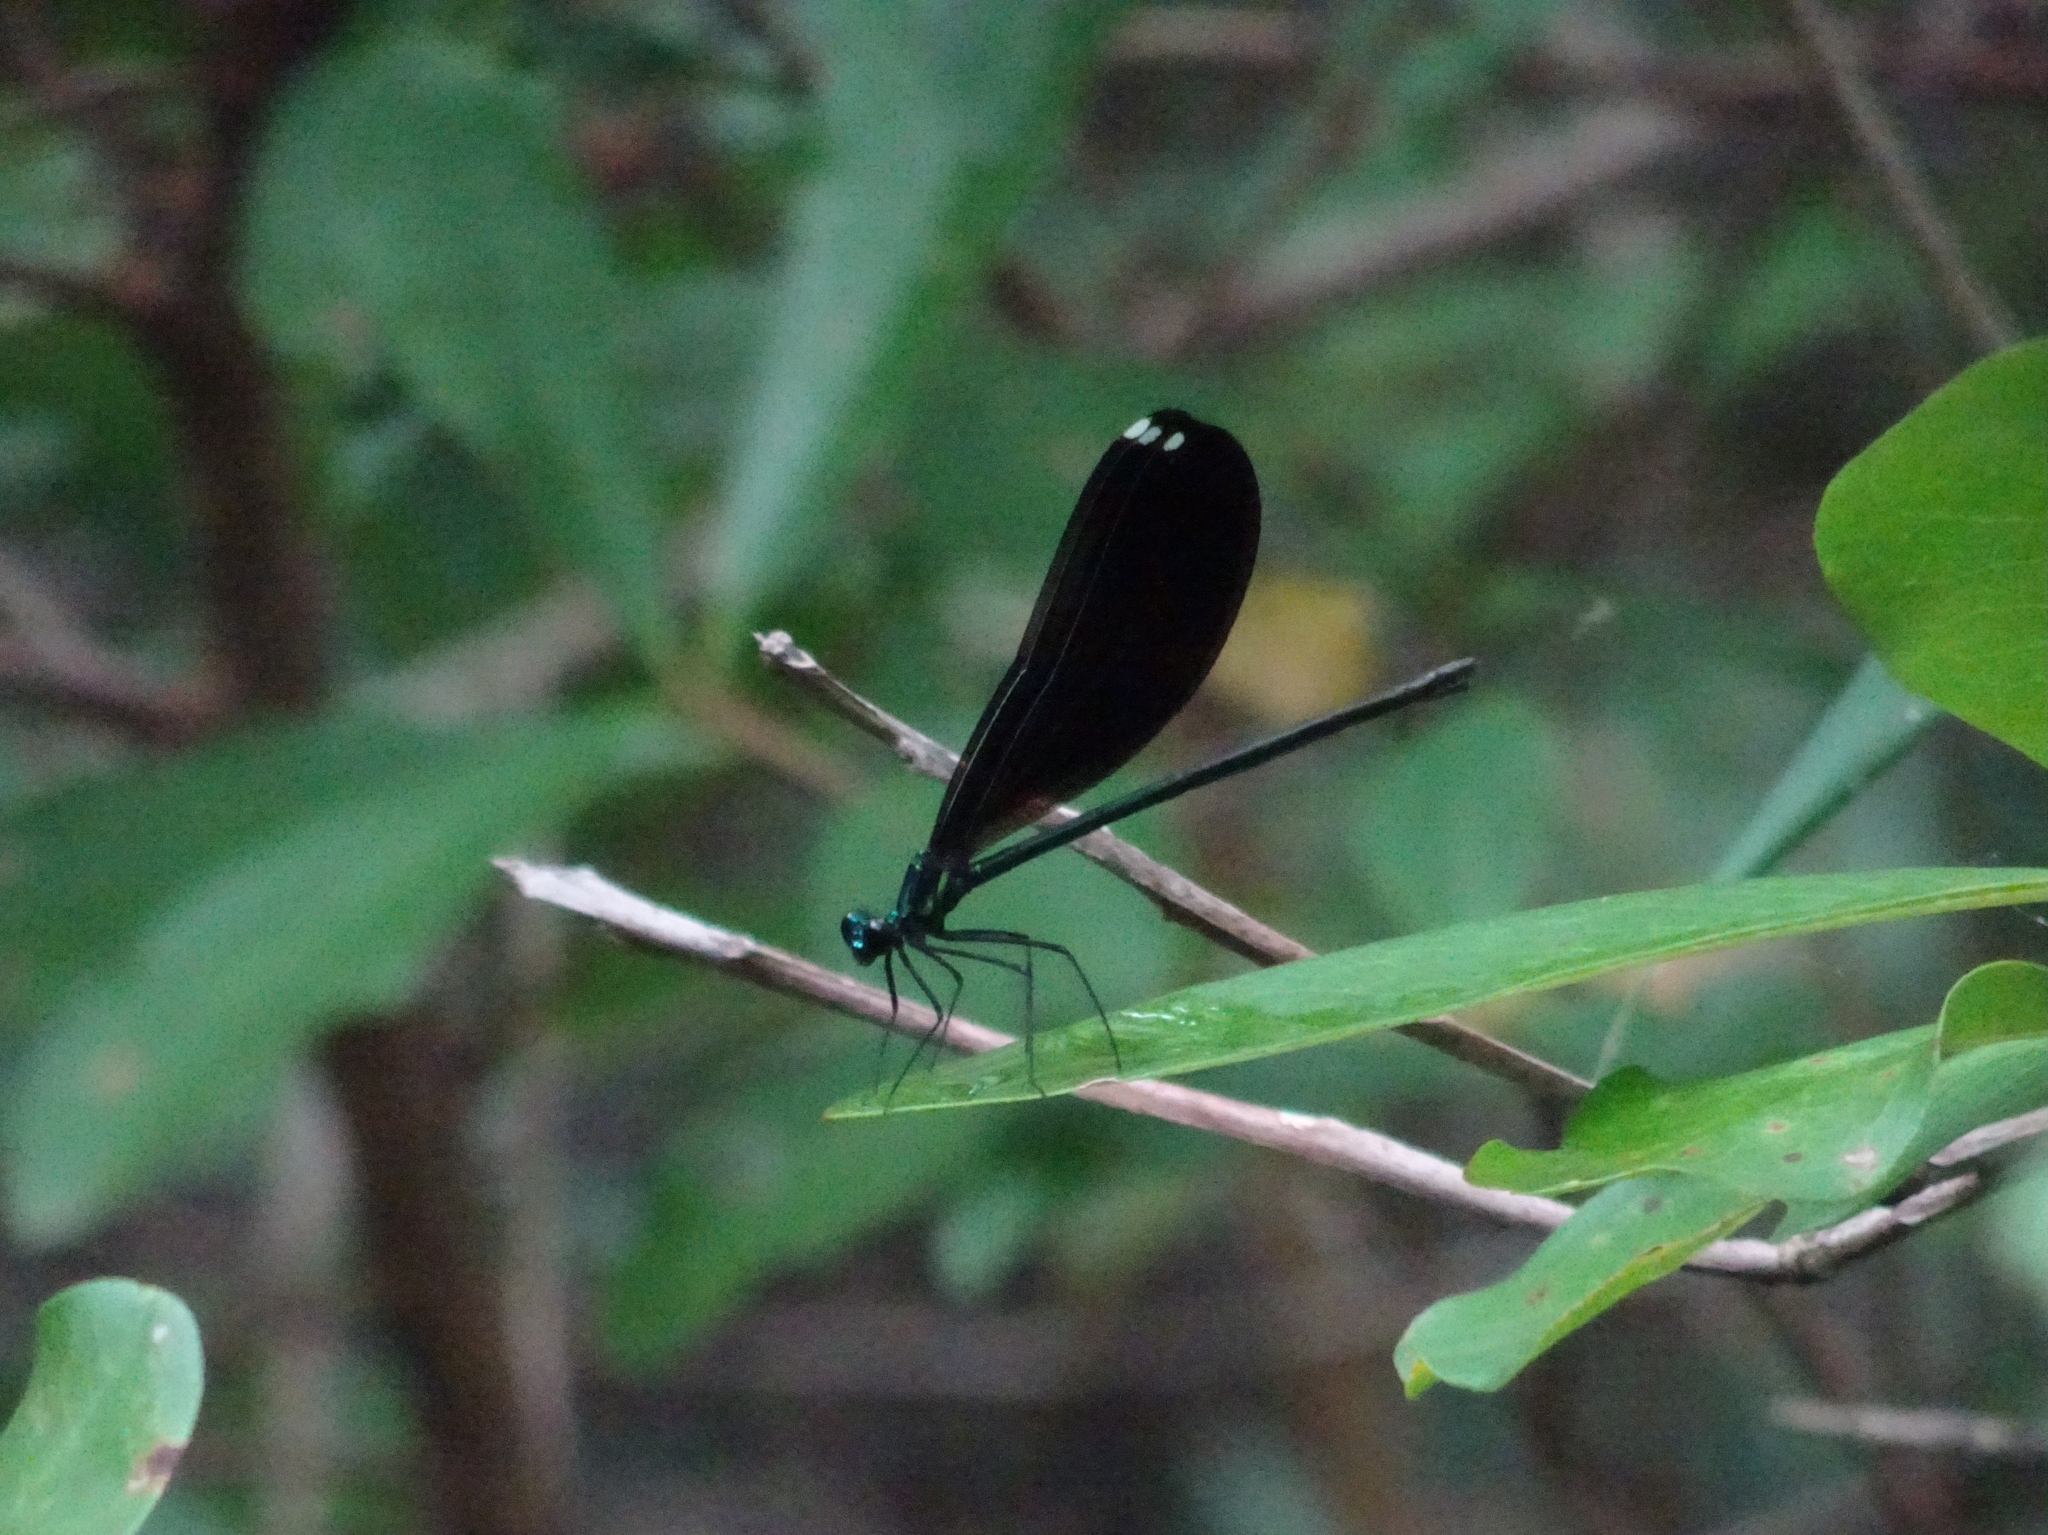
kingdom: Animalia
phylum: Arthropoda
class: Insecta
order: Odonata
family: Calopterygidae
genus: Calopteryx
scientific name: Calopteryx maculata
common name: Ebony jewelwing
